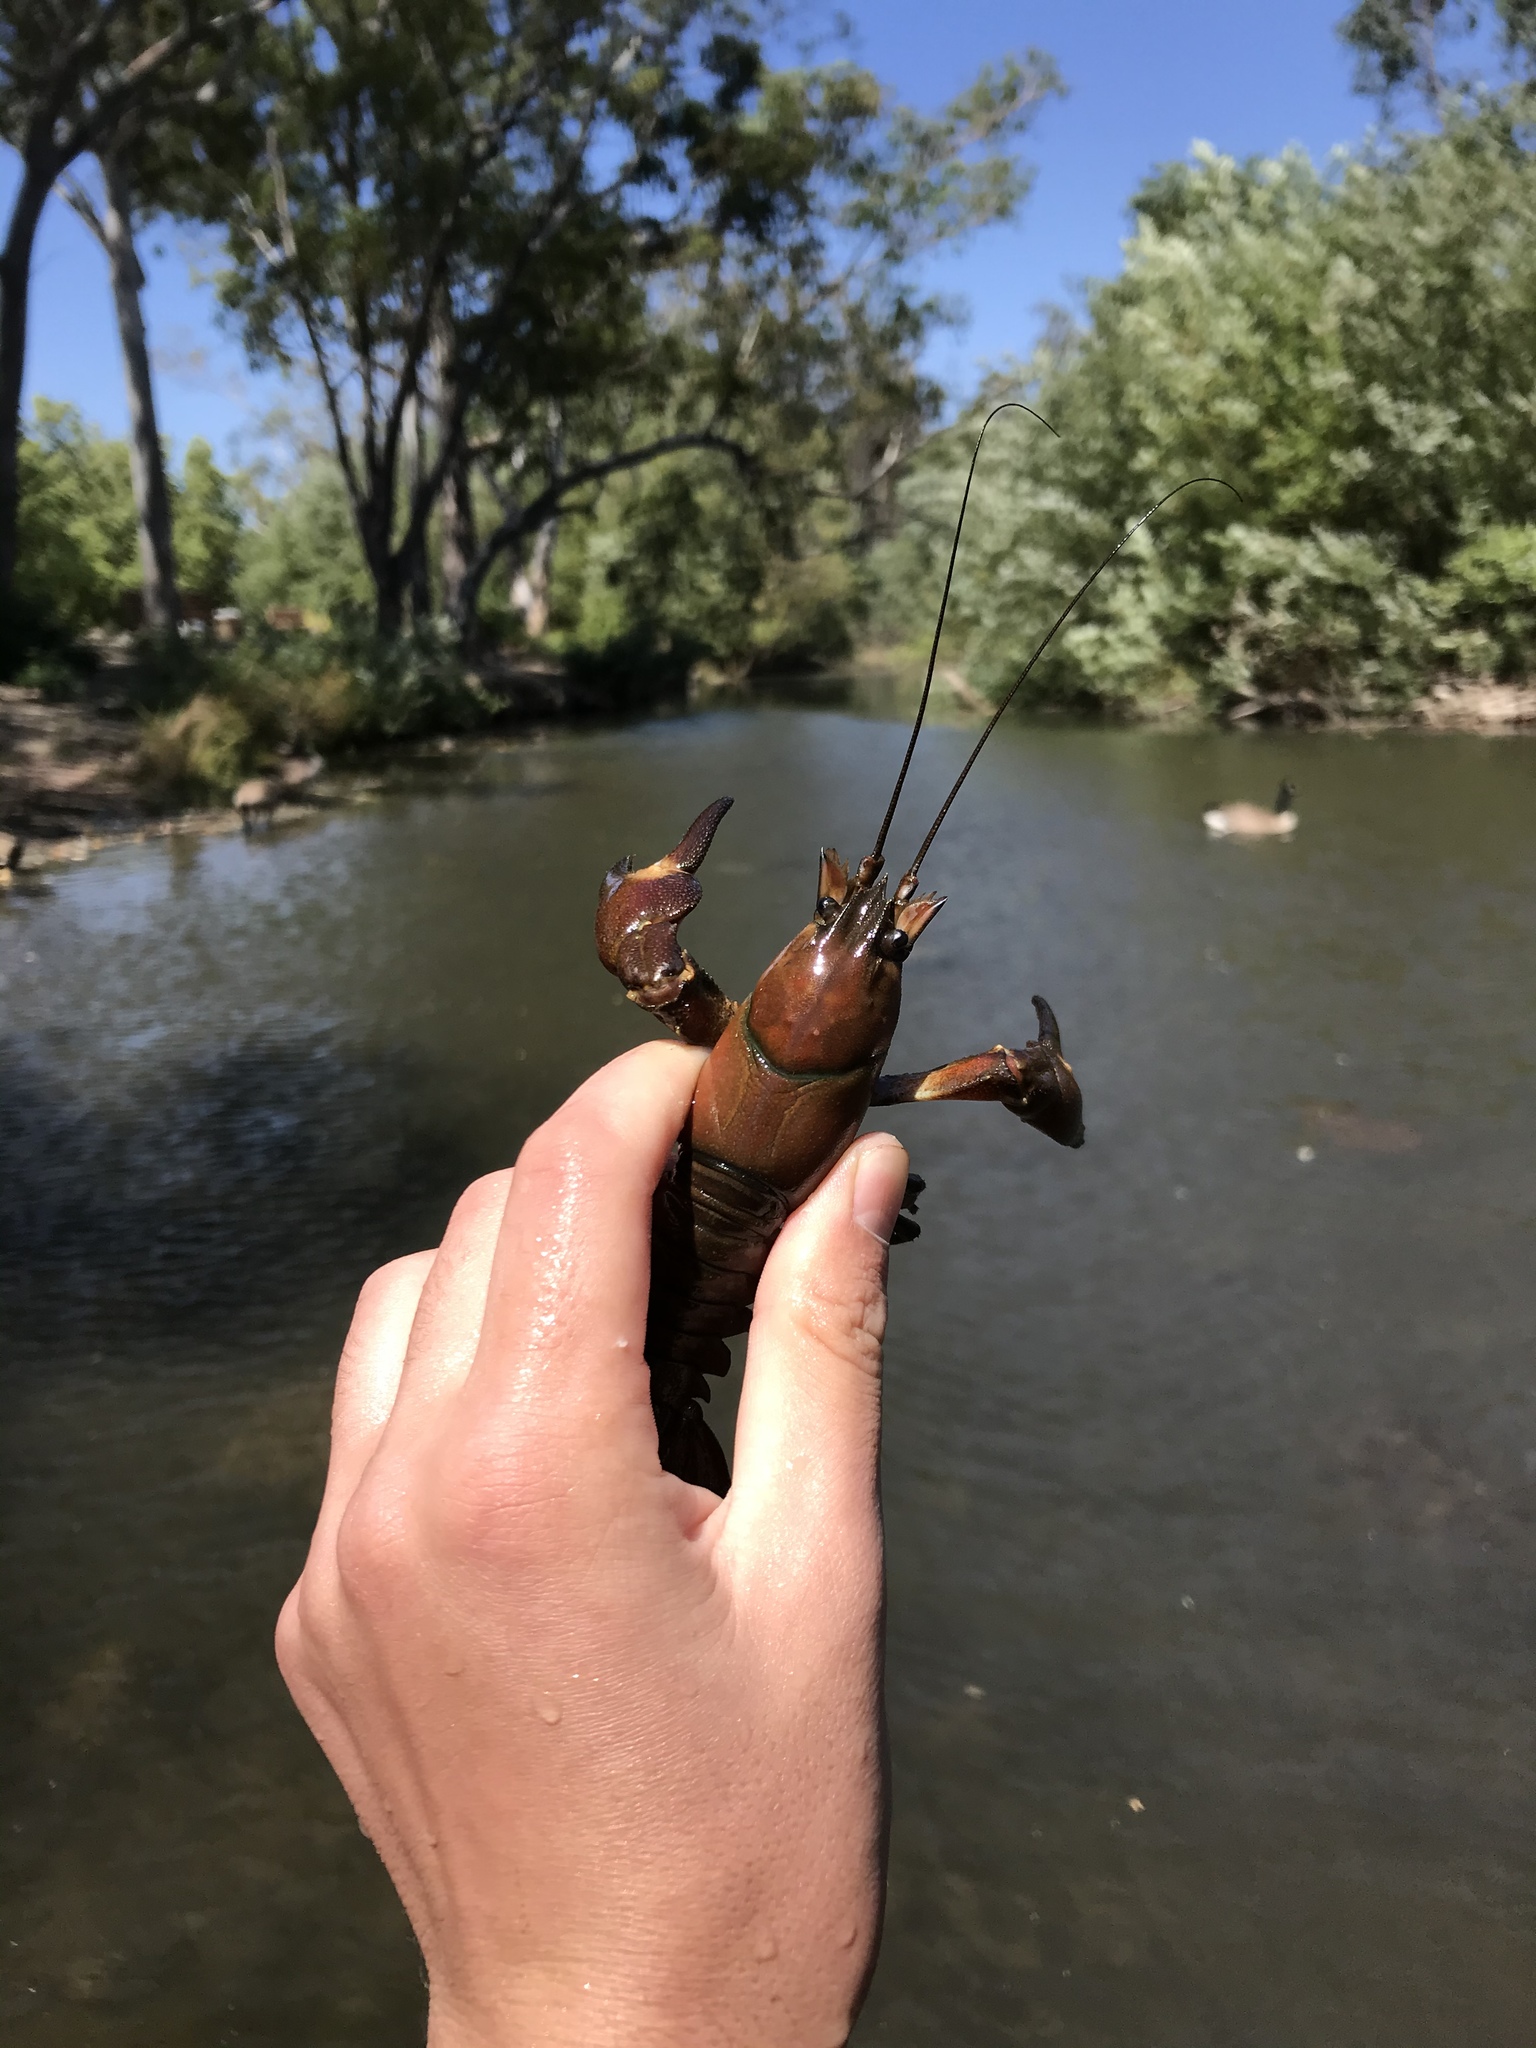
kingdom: Animalia
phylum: Arthropoda
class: Malacostraca
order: Decapoda
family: Astacidae
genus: Pacifastacus
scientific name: Pacifastacus leniusculus
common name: Signal crayfish
